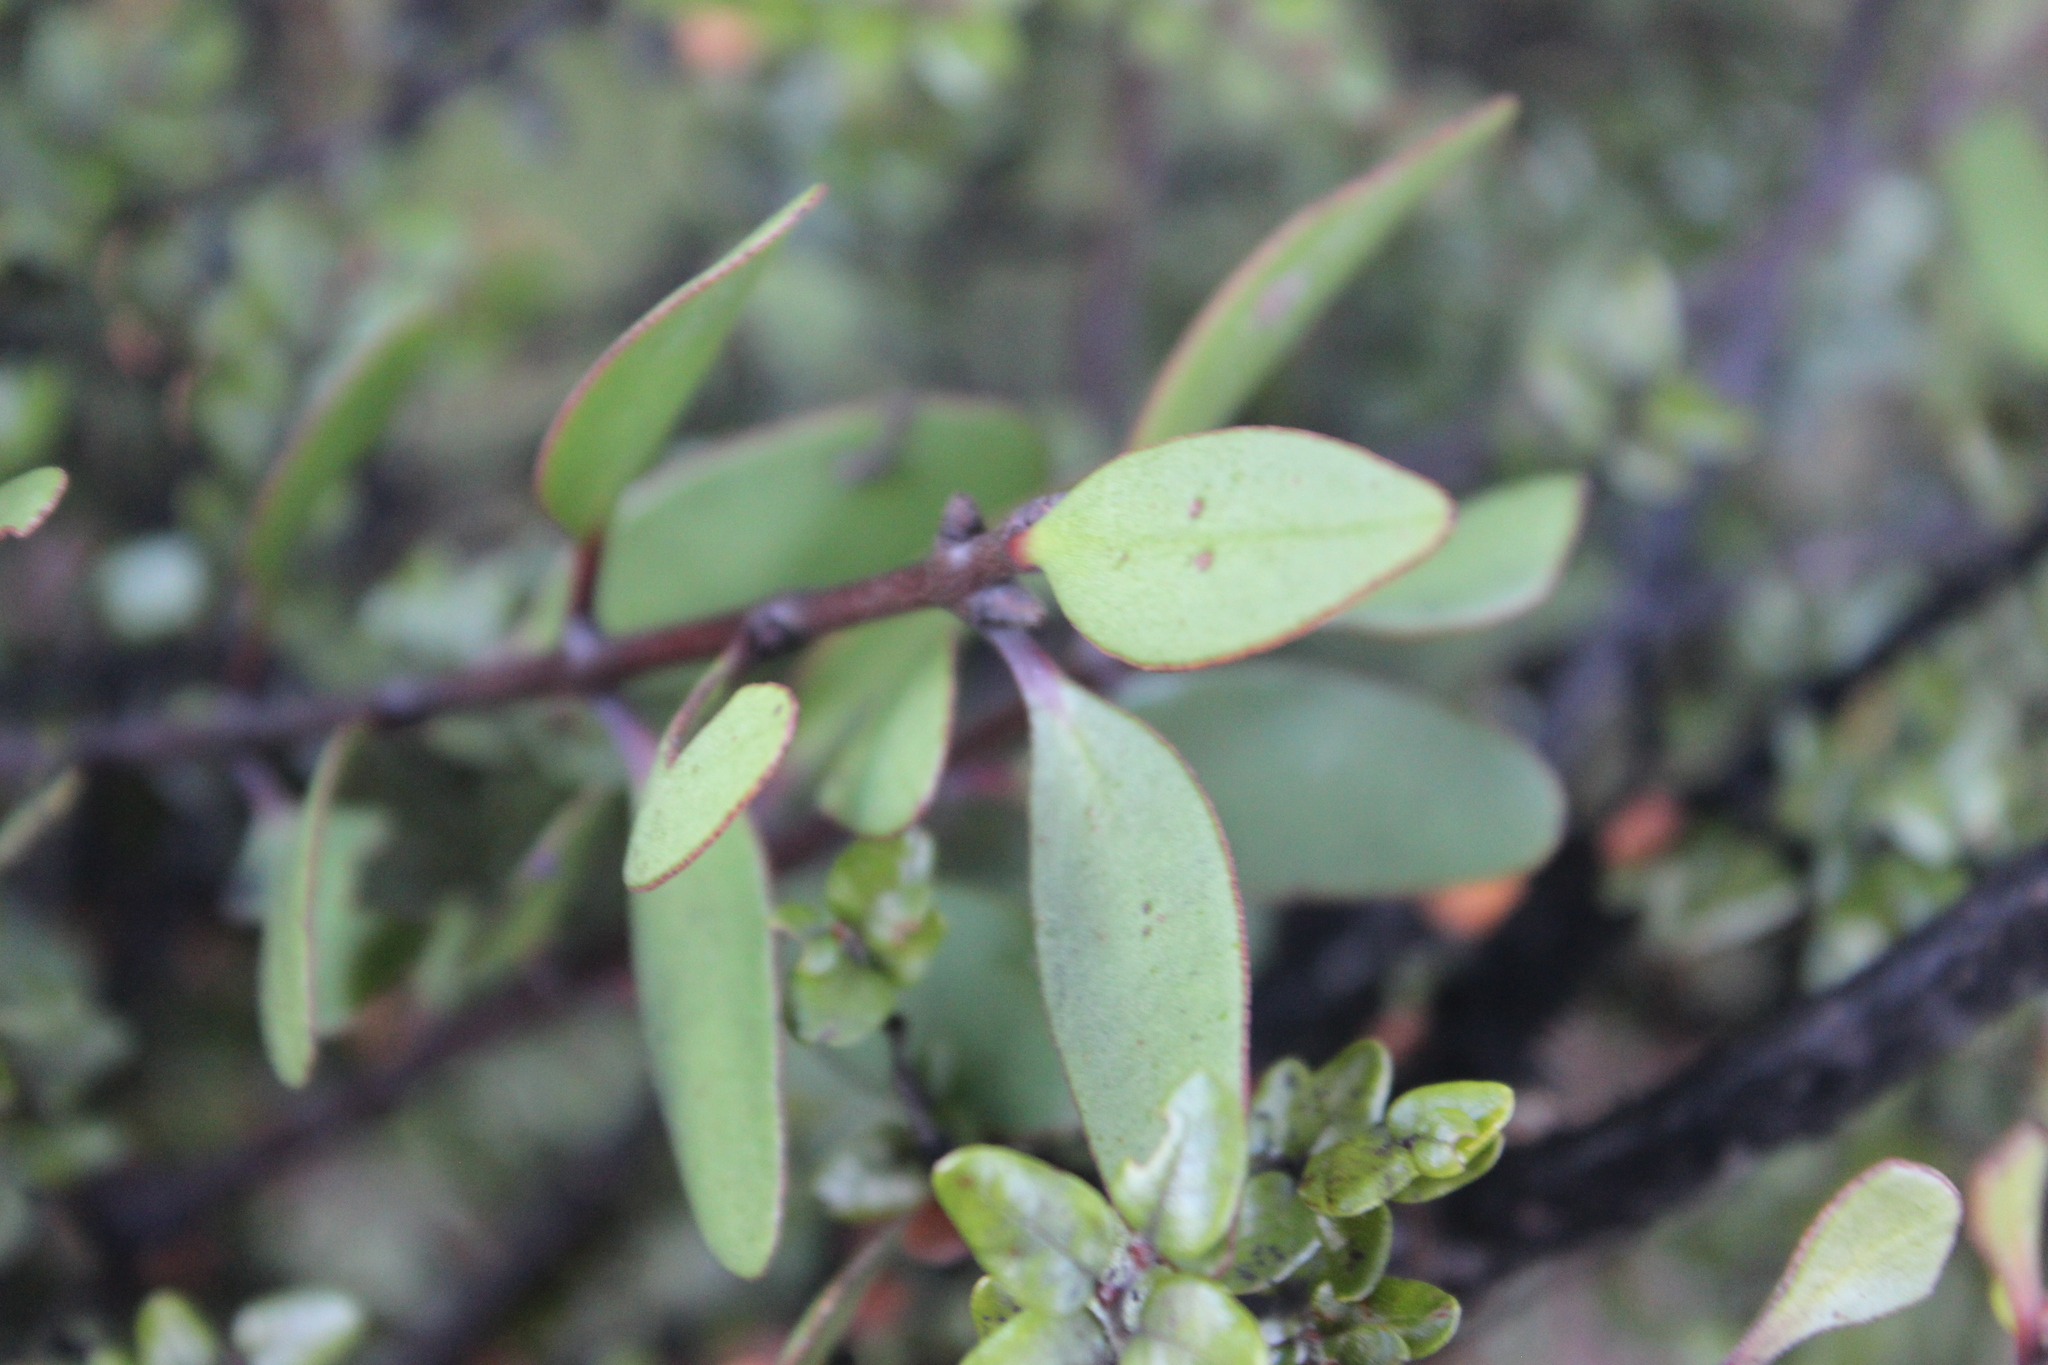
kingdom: Plantae
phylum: Tracheophyta
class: Magnoliopsida
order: Santalales
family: Loranthaceae
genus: Alepis
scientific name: Alepis flavida
